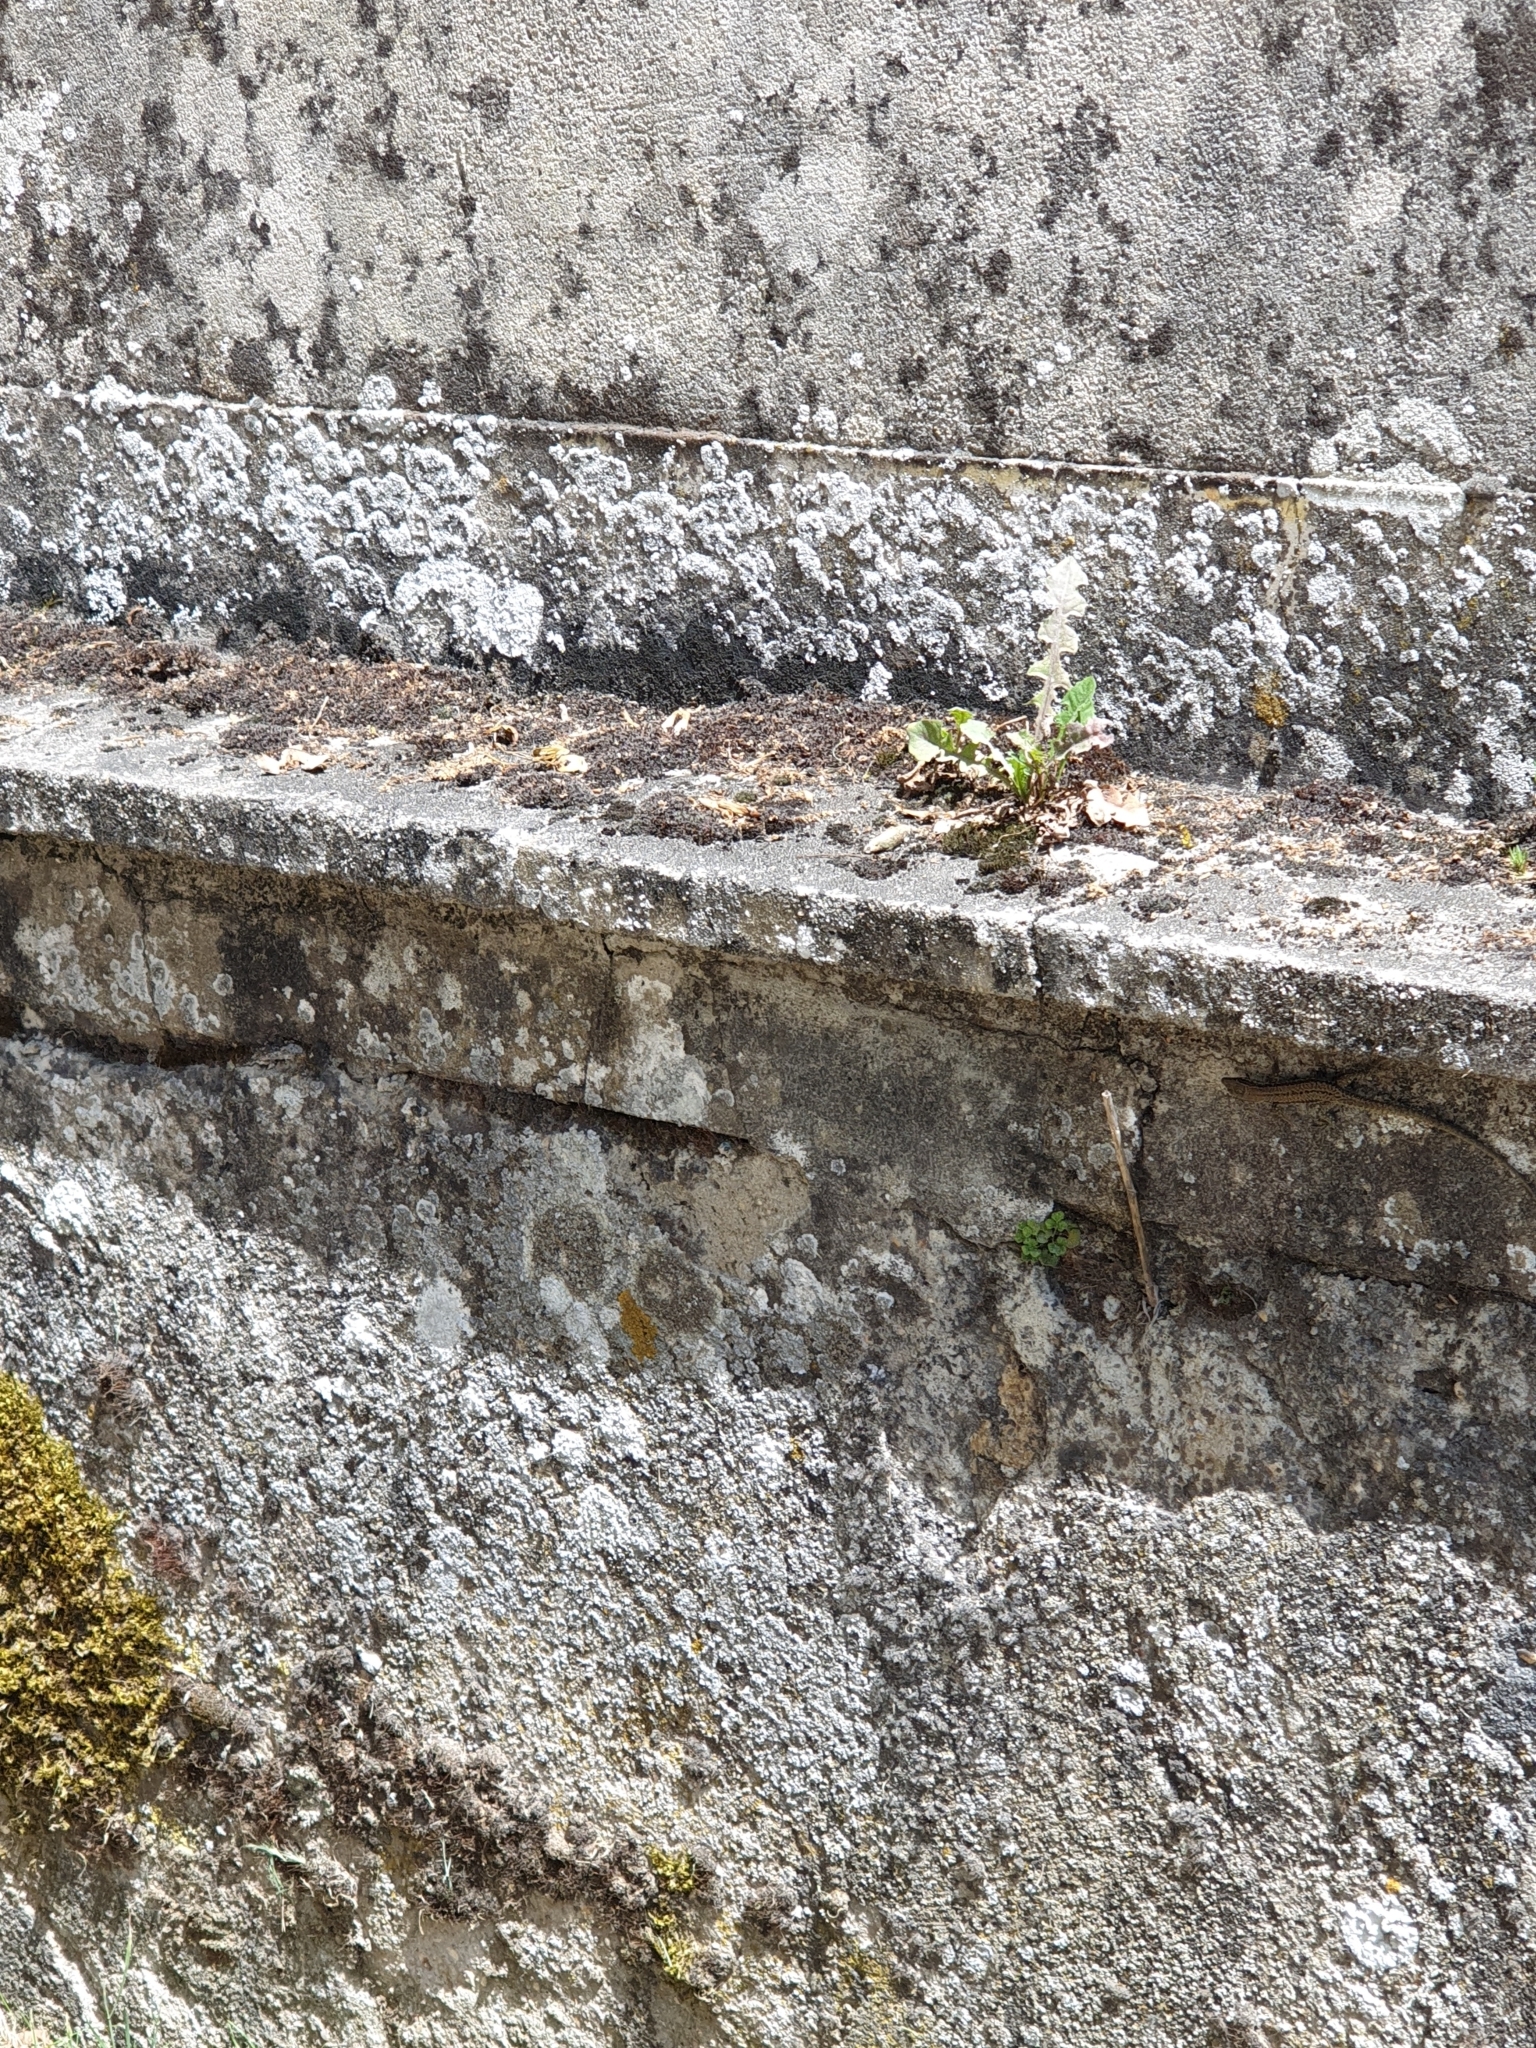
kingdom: Animalia
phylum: Chordata
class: Squamata
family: Lacertidae
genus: Podarcis
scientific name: Podarcis muralis
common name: Common wall lizard
